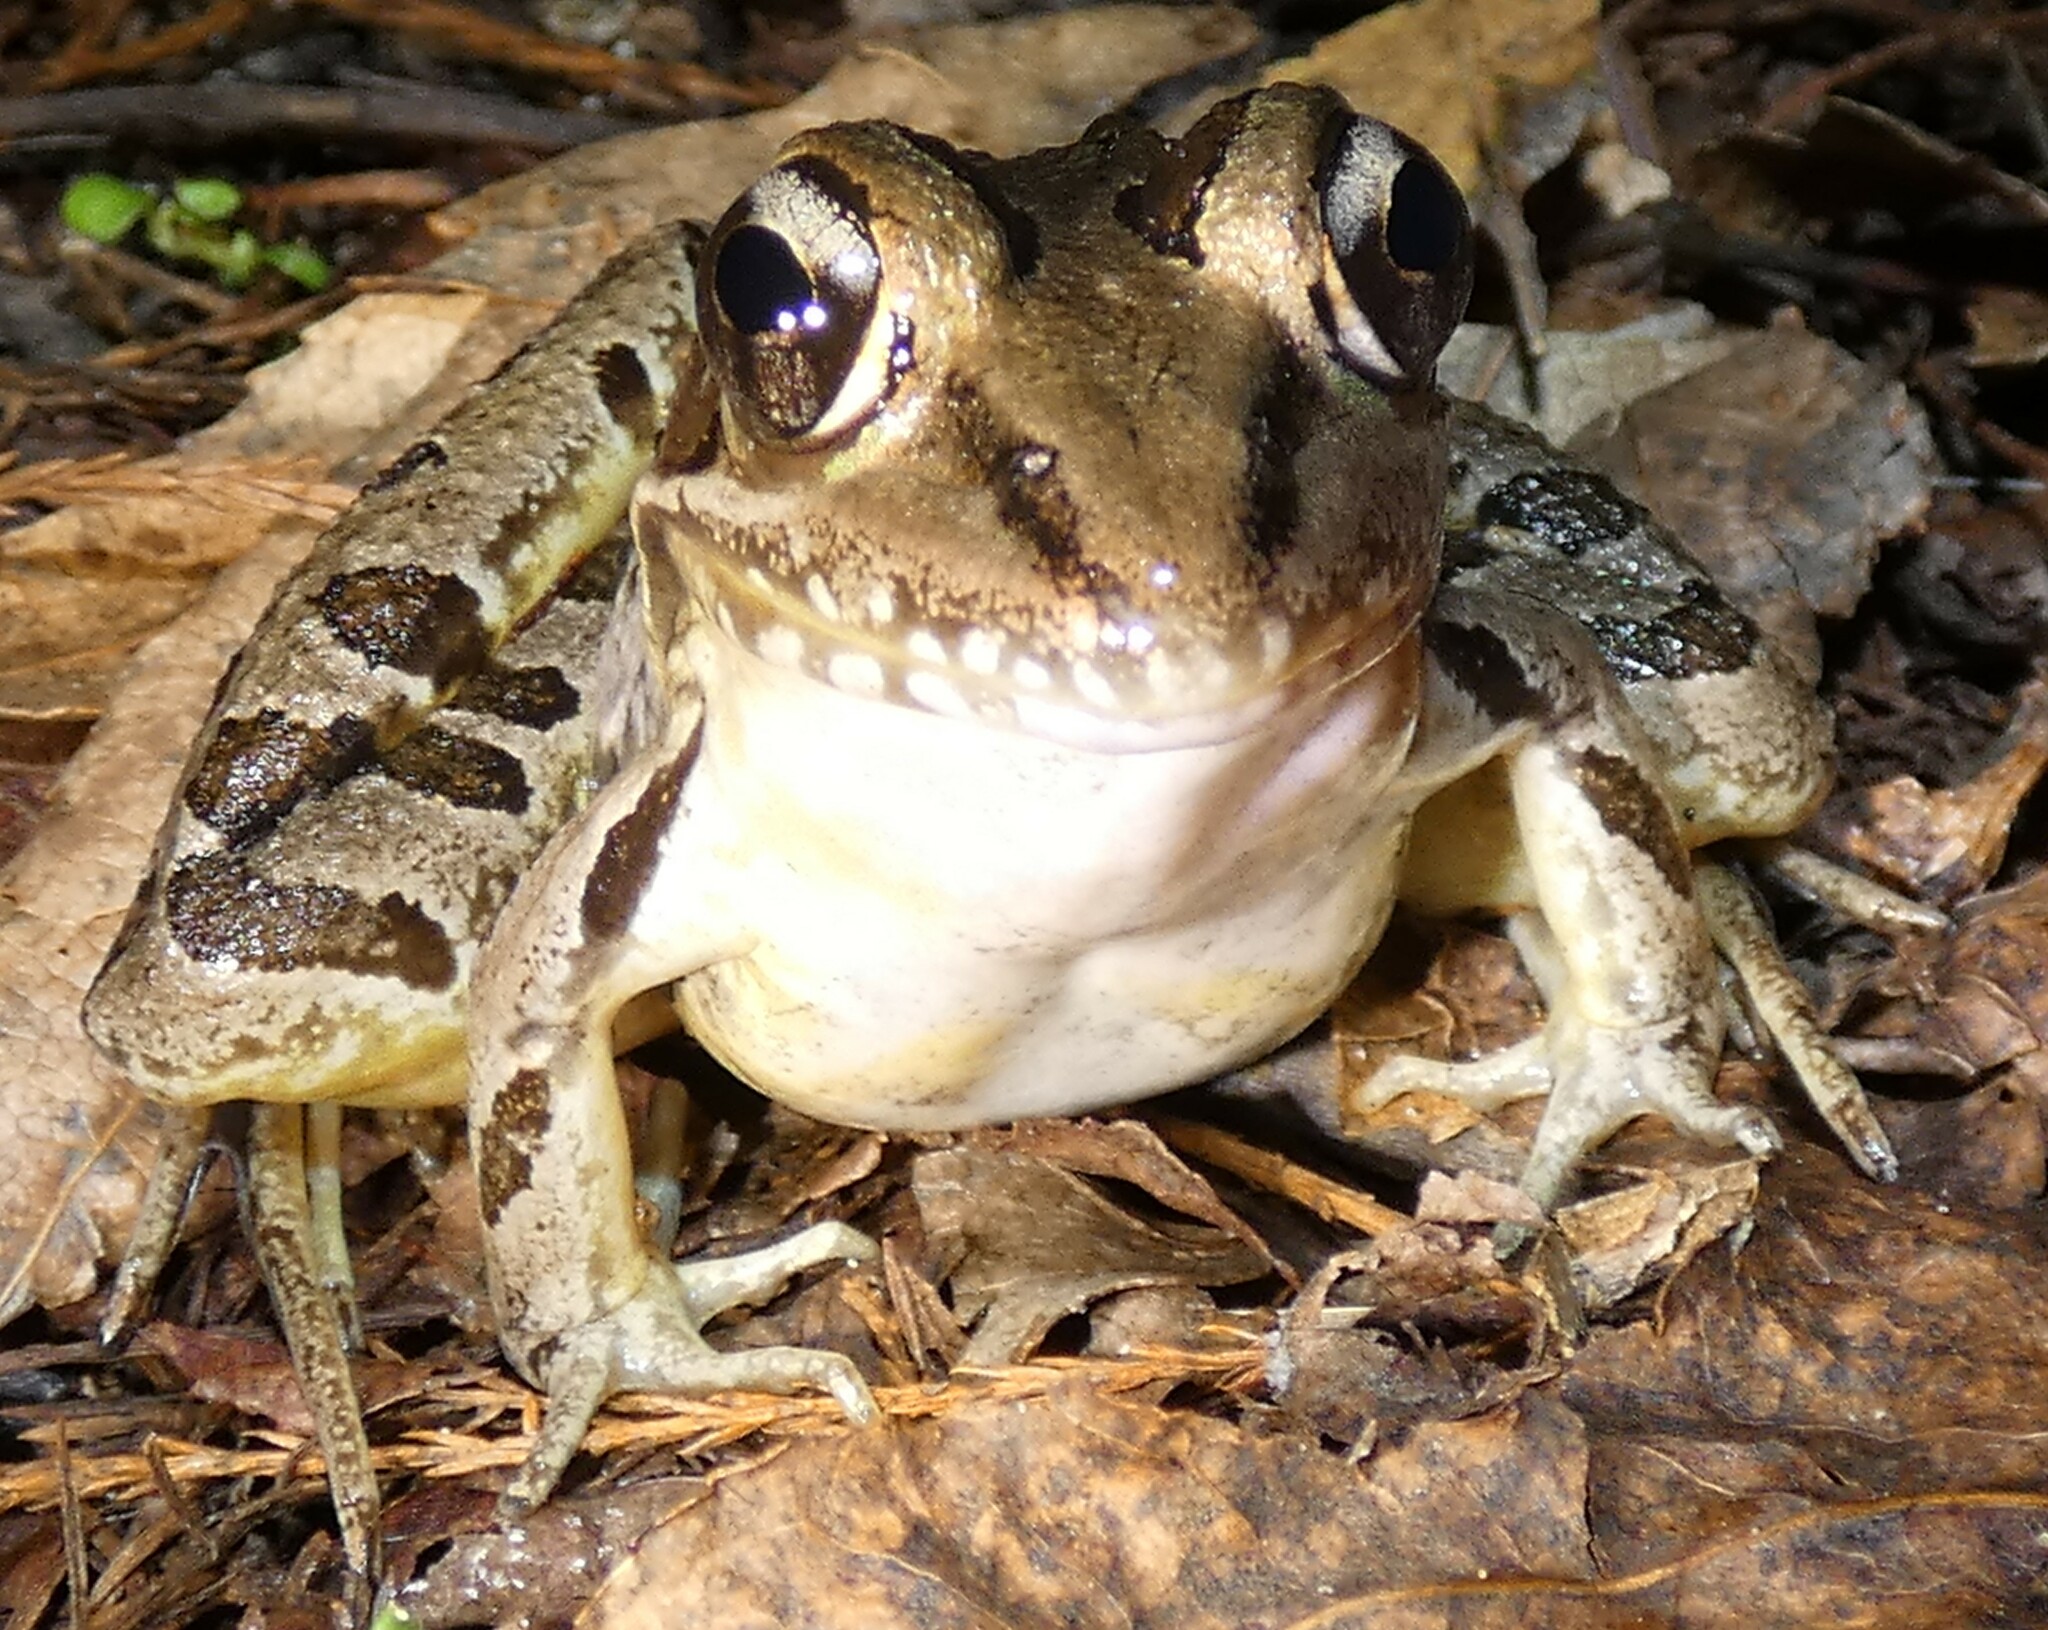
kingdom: Animalia
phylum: Chordata
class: Amphibia
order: Anura
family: Ranidae
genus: Lithobates
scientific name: Lithobates sphenocephalus
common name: Southern leopard frog
